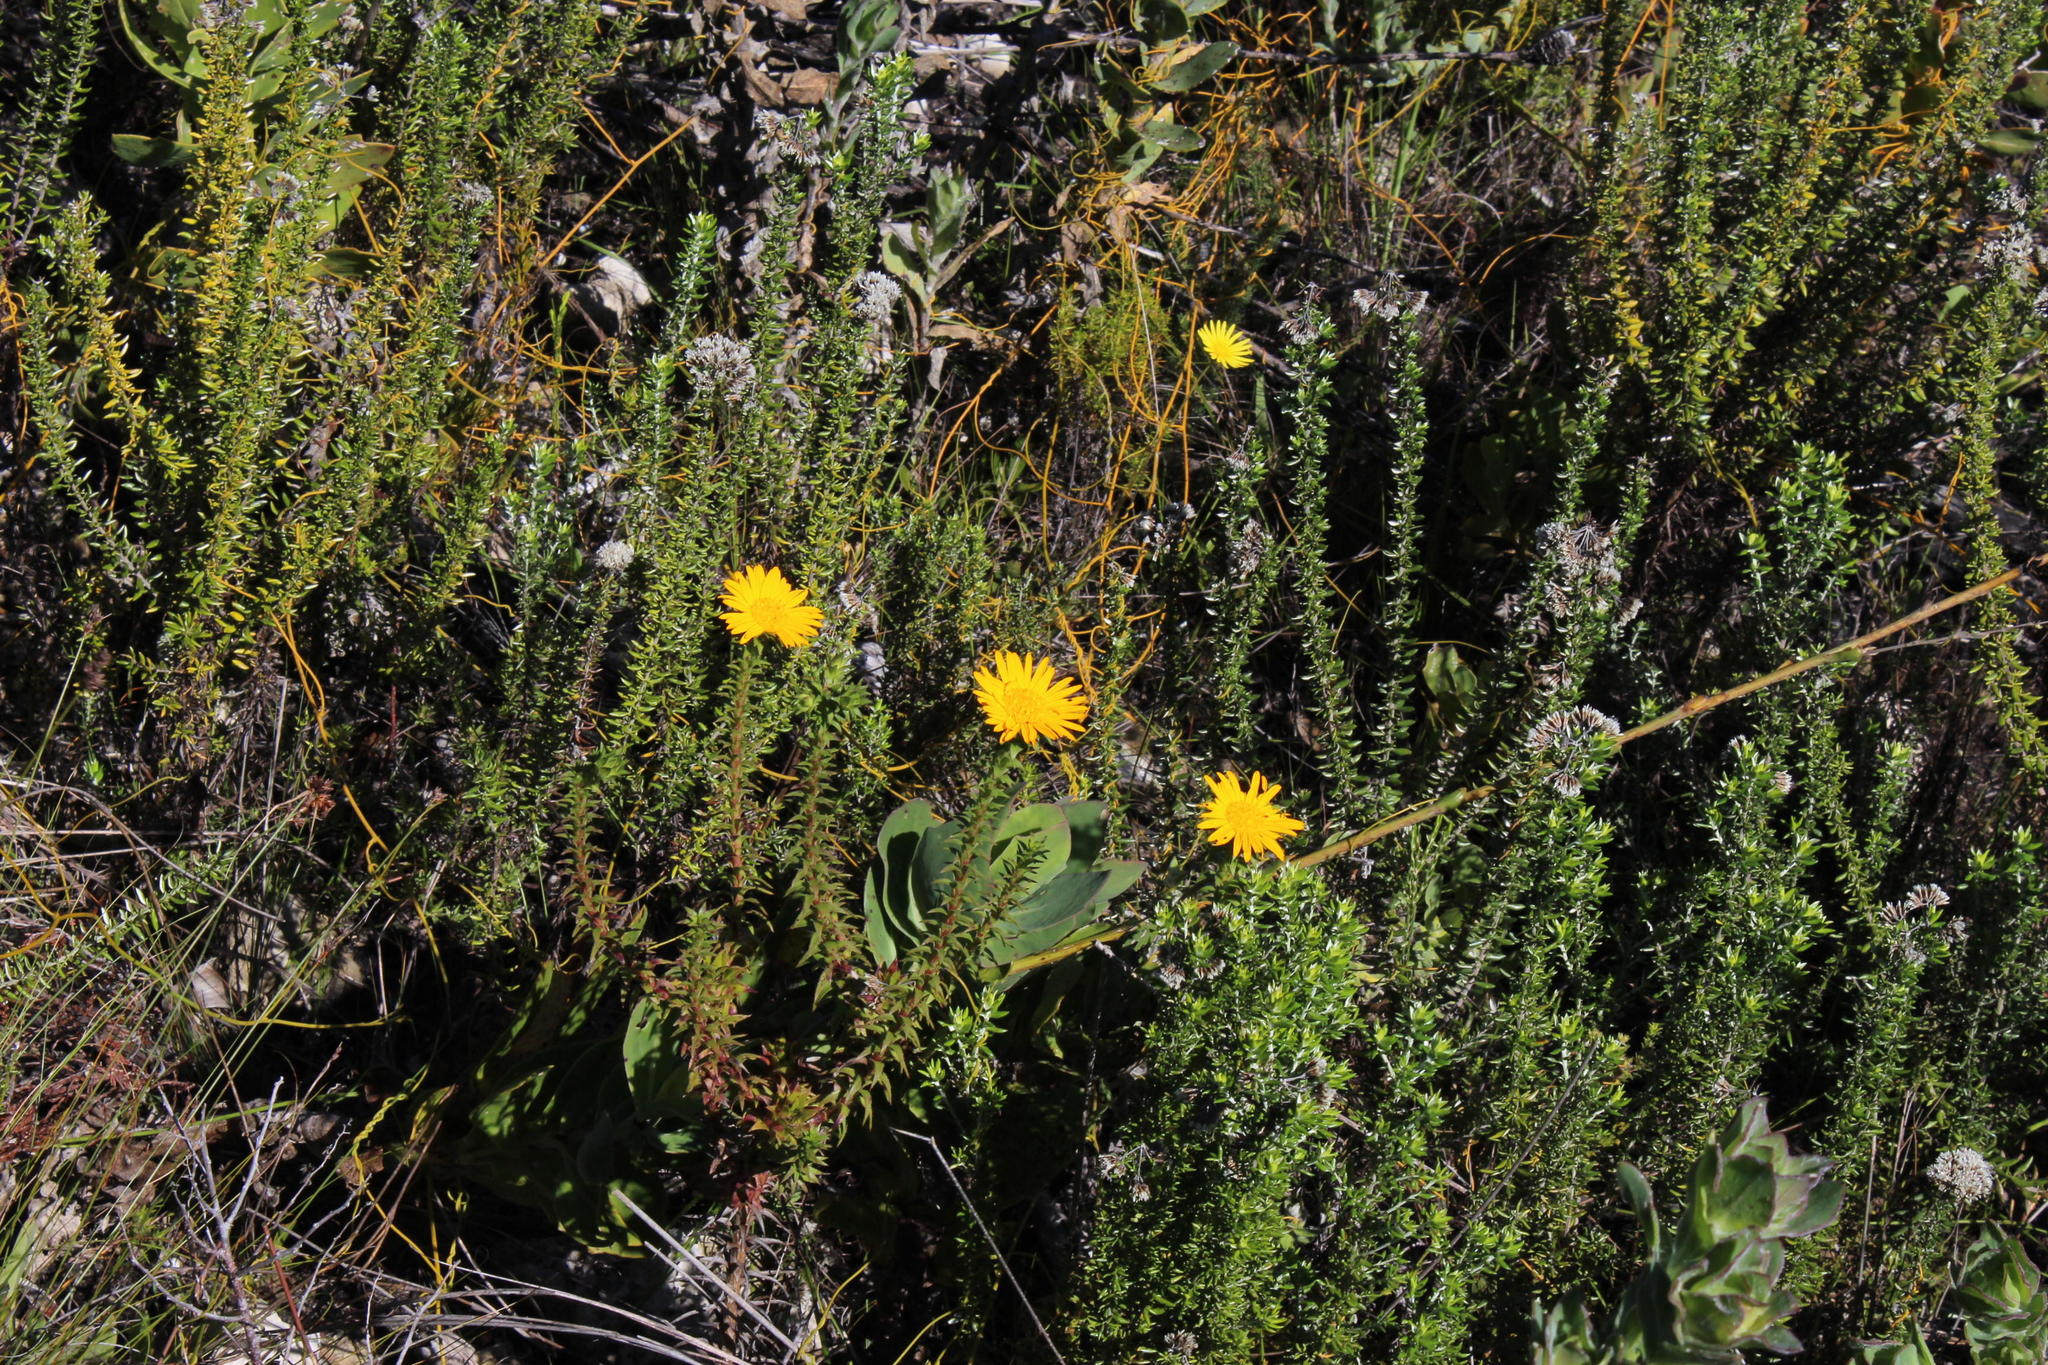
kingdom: Plantae
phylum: Tracheophyta
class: Magnoliopsida
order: Asterales
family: Asteraceae
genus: Oedera
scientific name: Oedera capensis
